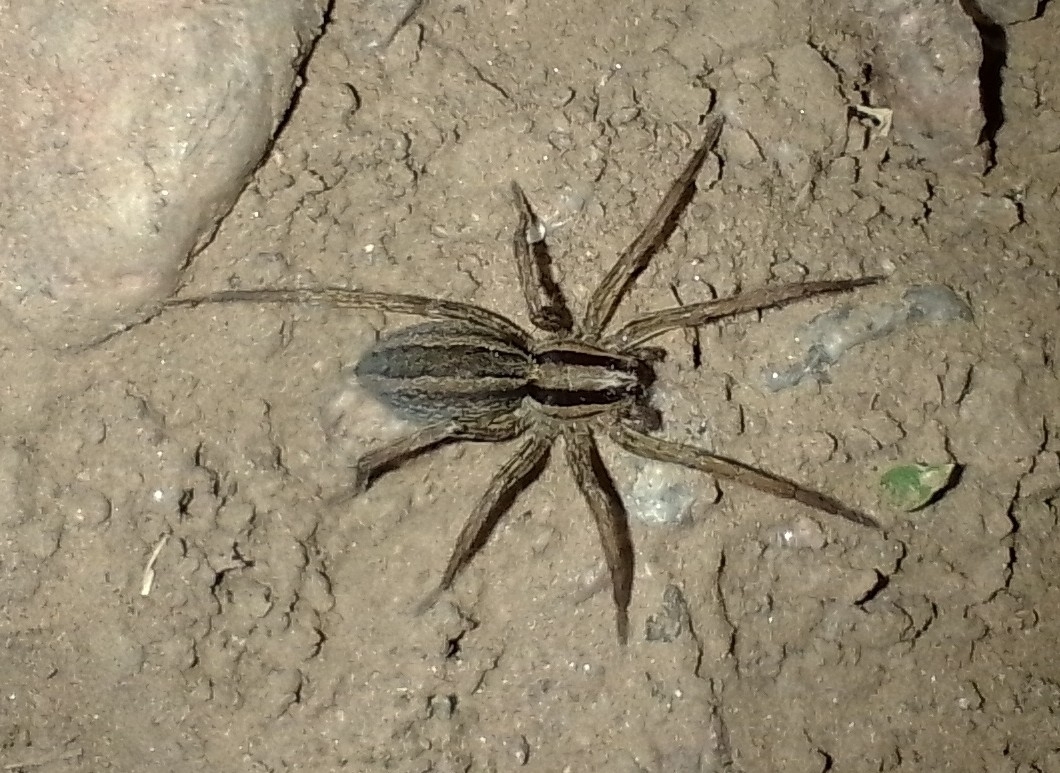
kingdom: Animalia
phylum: Arthropoda
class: Arachnida
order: Araneae
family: Lycosidae
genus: Hogna
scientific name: Hogna bivittata
